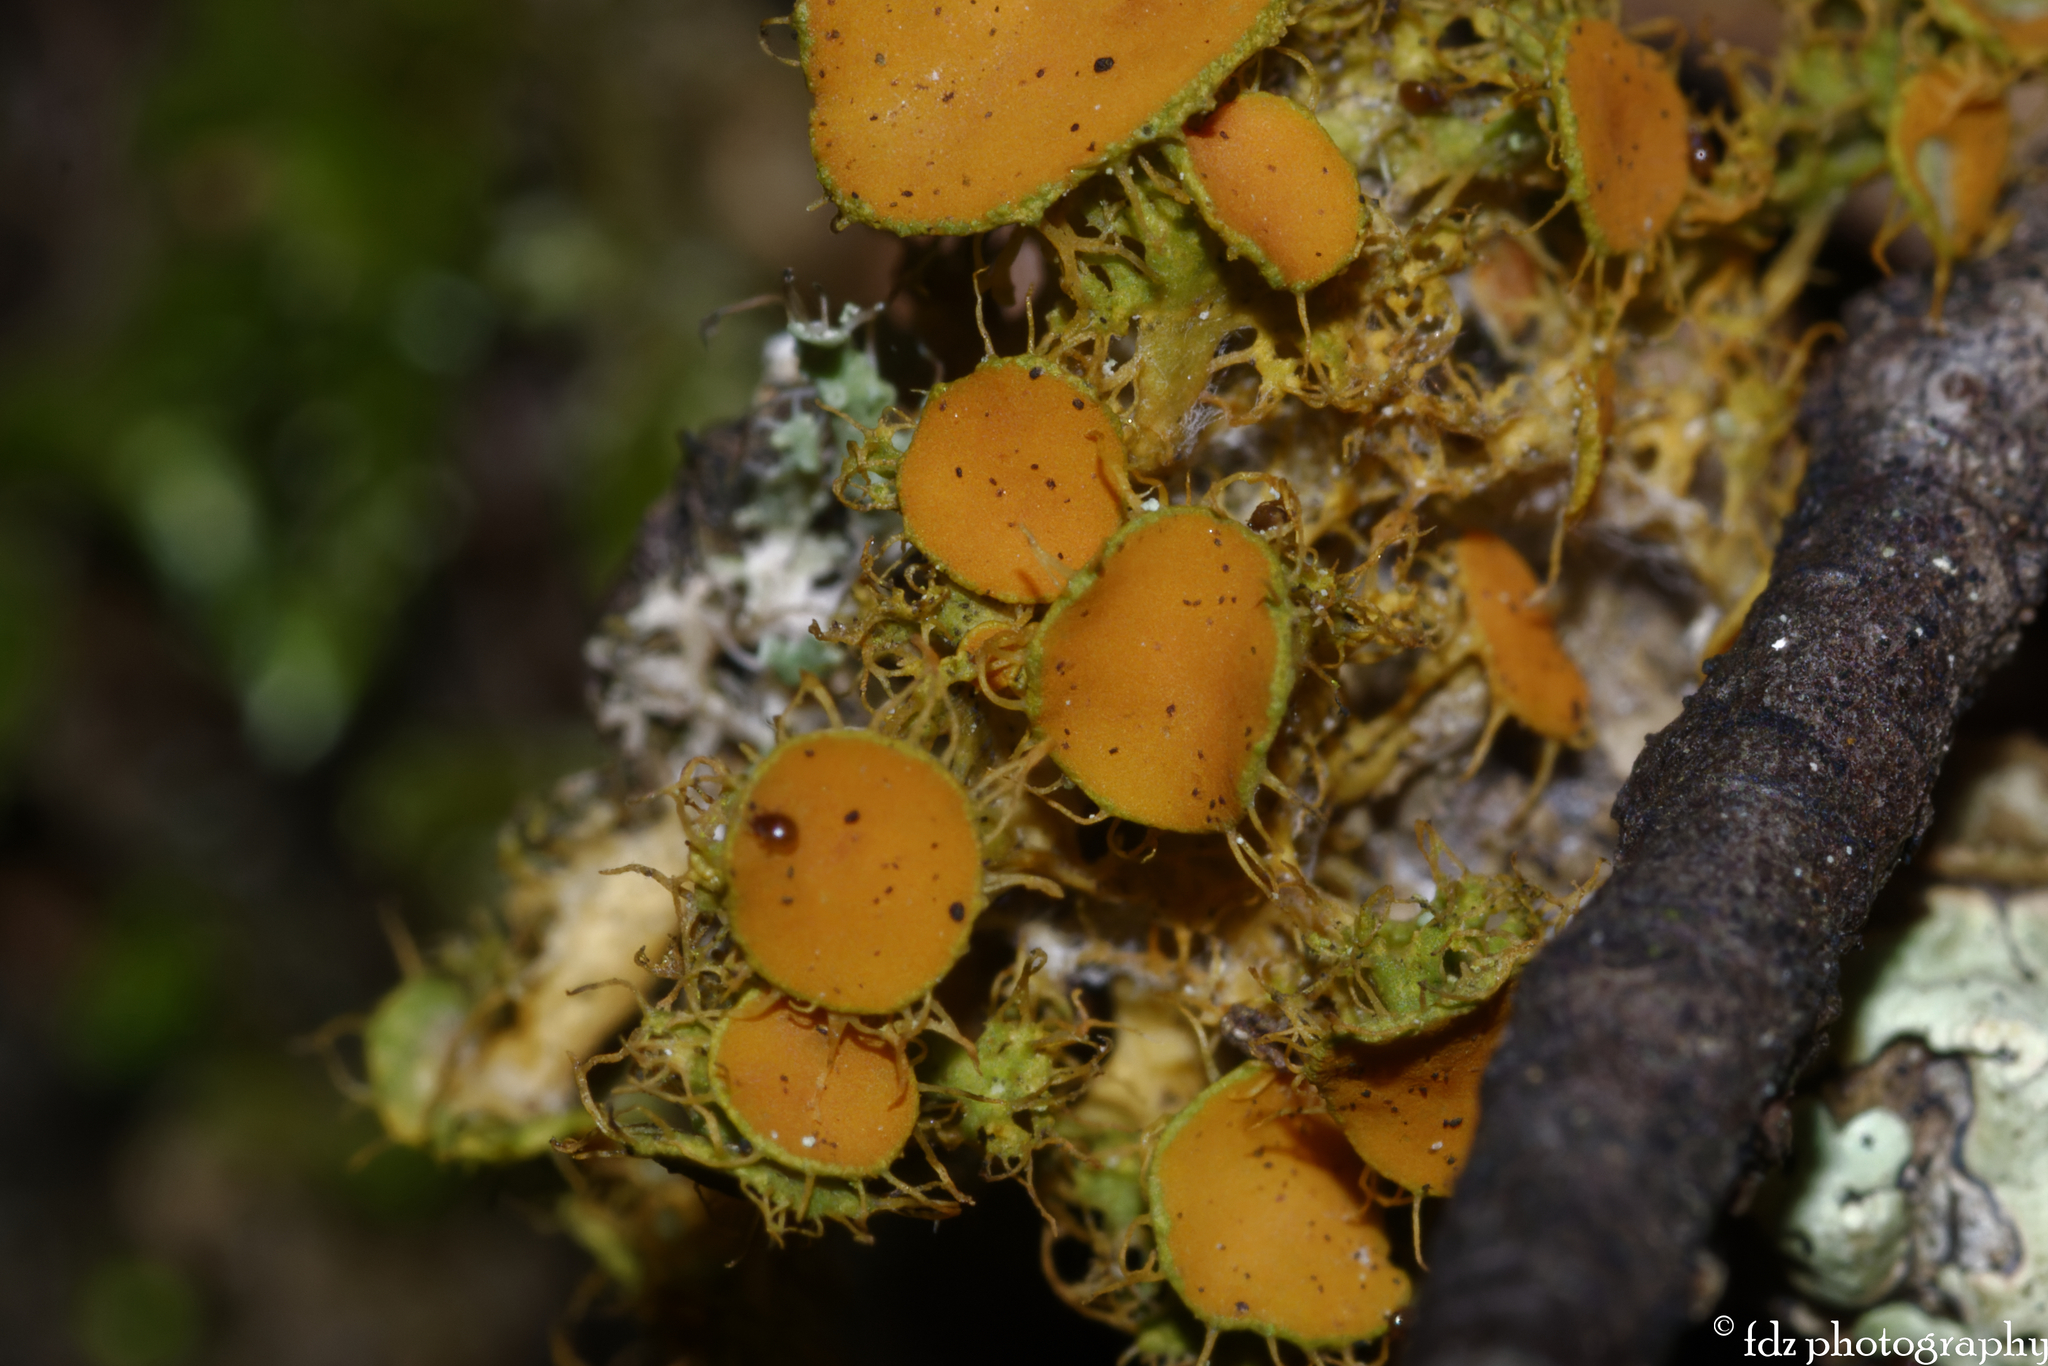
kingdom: Fungi
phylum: Ascomycota
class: Lecanoromycetes
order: Teloschistales
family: Teloschistaceae
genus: Niorma
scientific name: Niorma chrysophthalma
